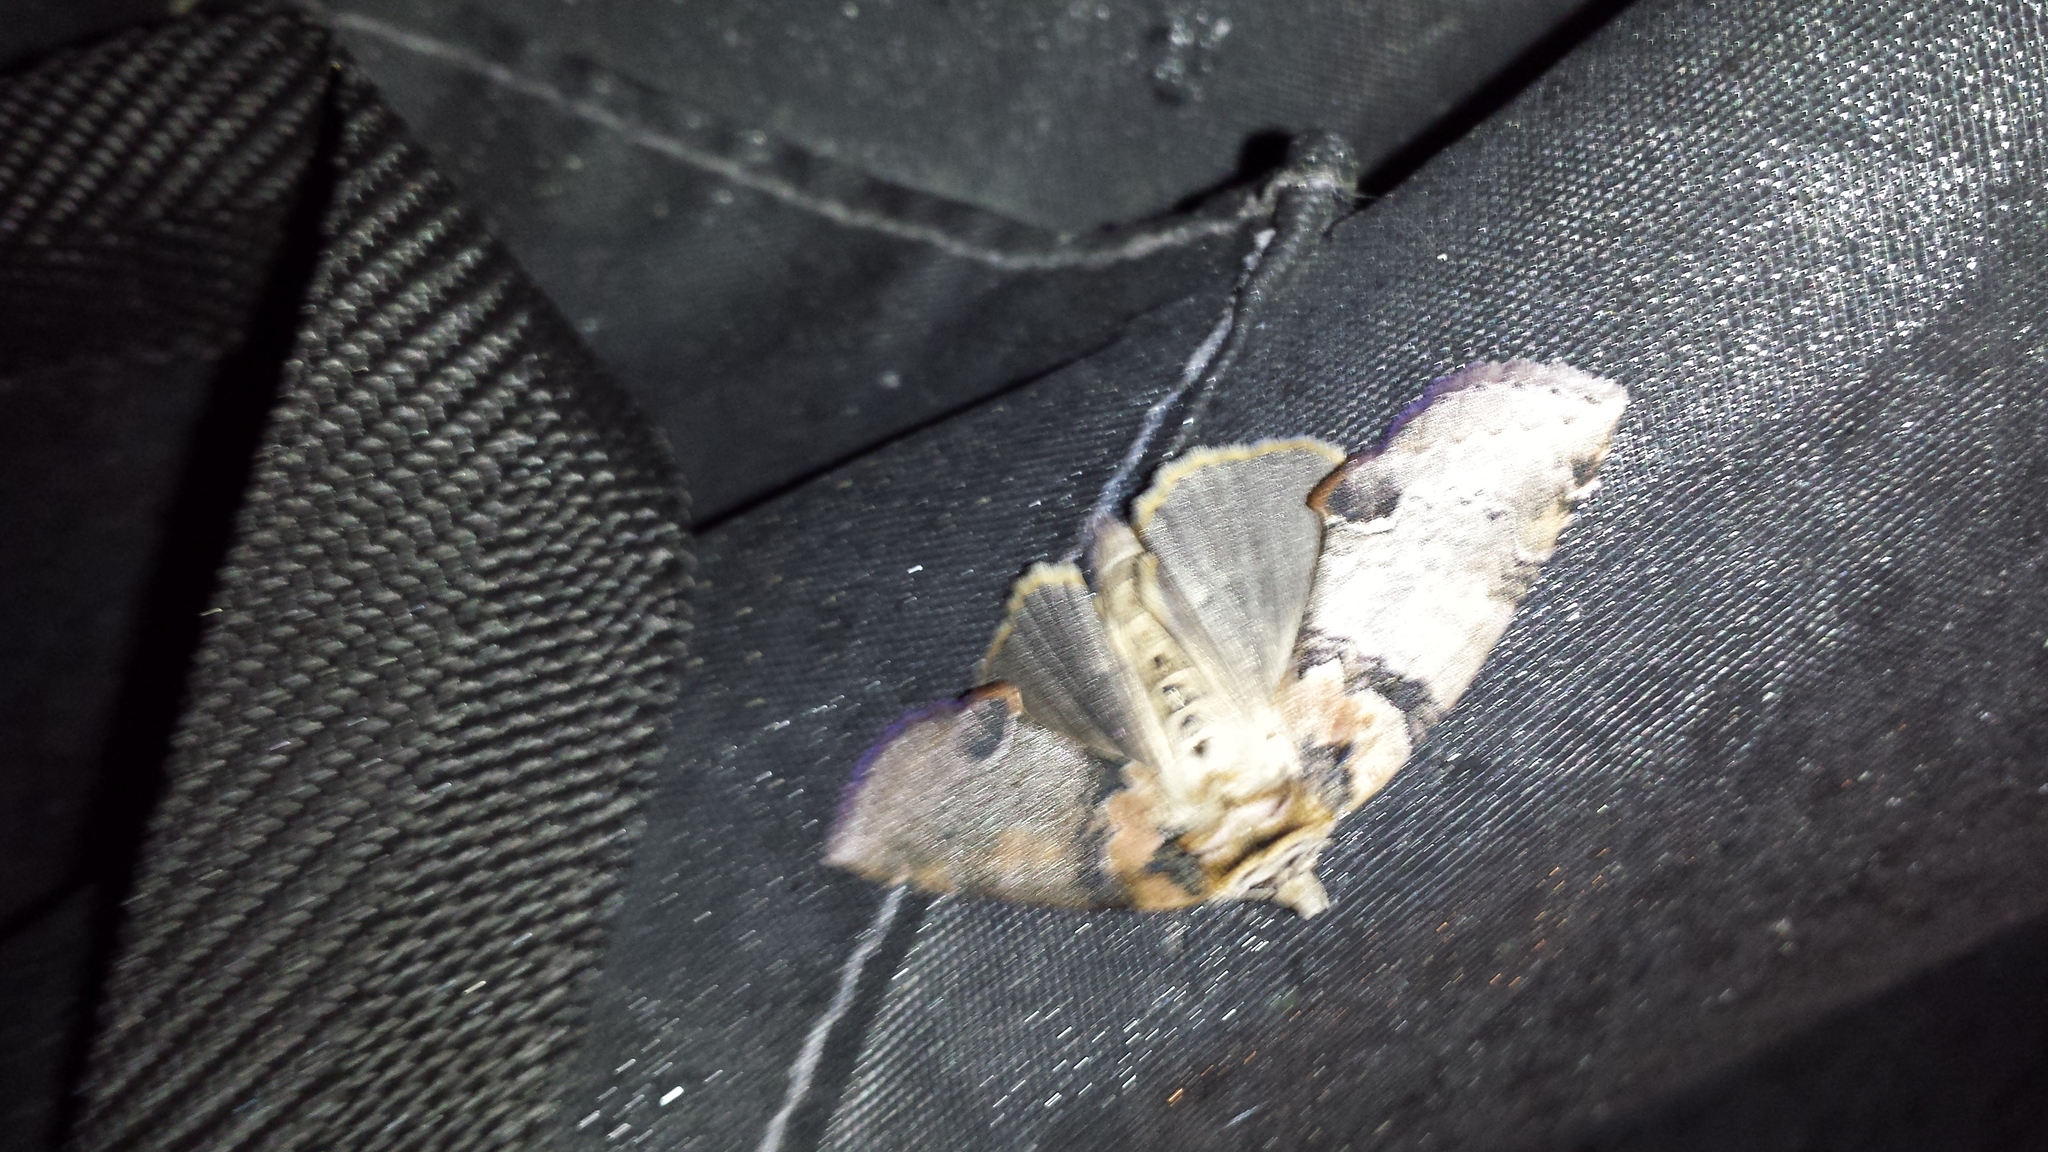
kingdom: Animalia
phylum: Arthropoda
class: Insecta
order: Lepidoptera
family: Drepanidae
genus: Pseudothyatira
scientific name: Pseudothyatira cymatophoroides
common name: Tufted thyatirid moth
